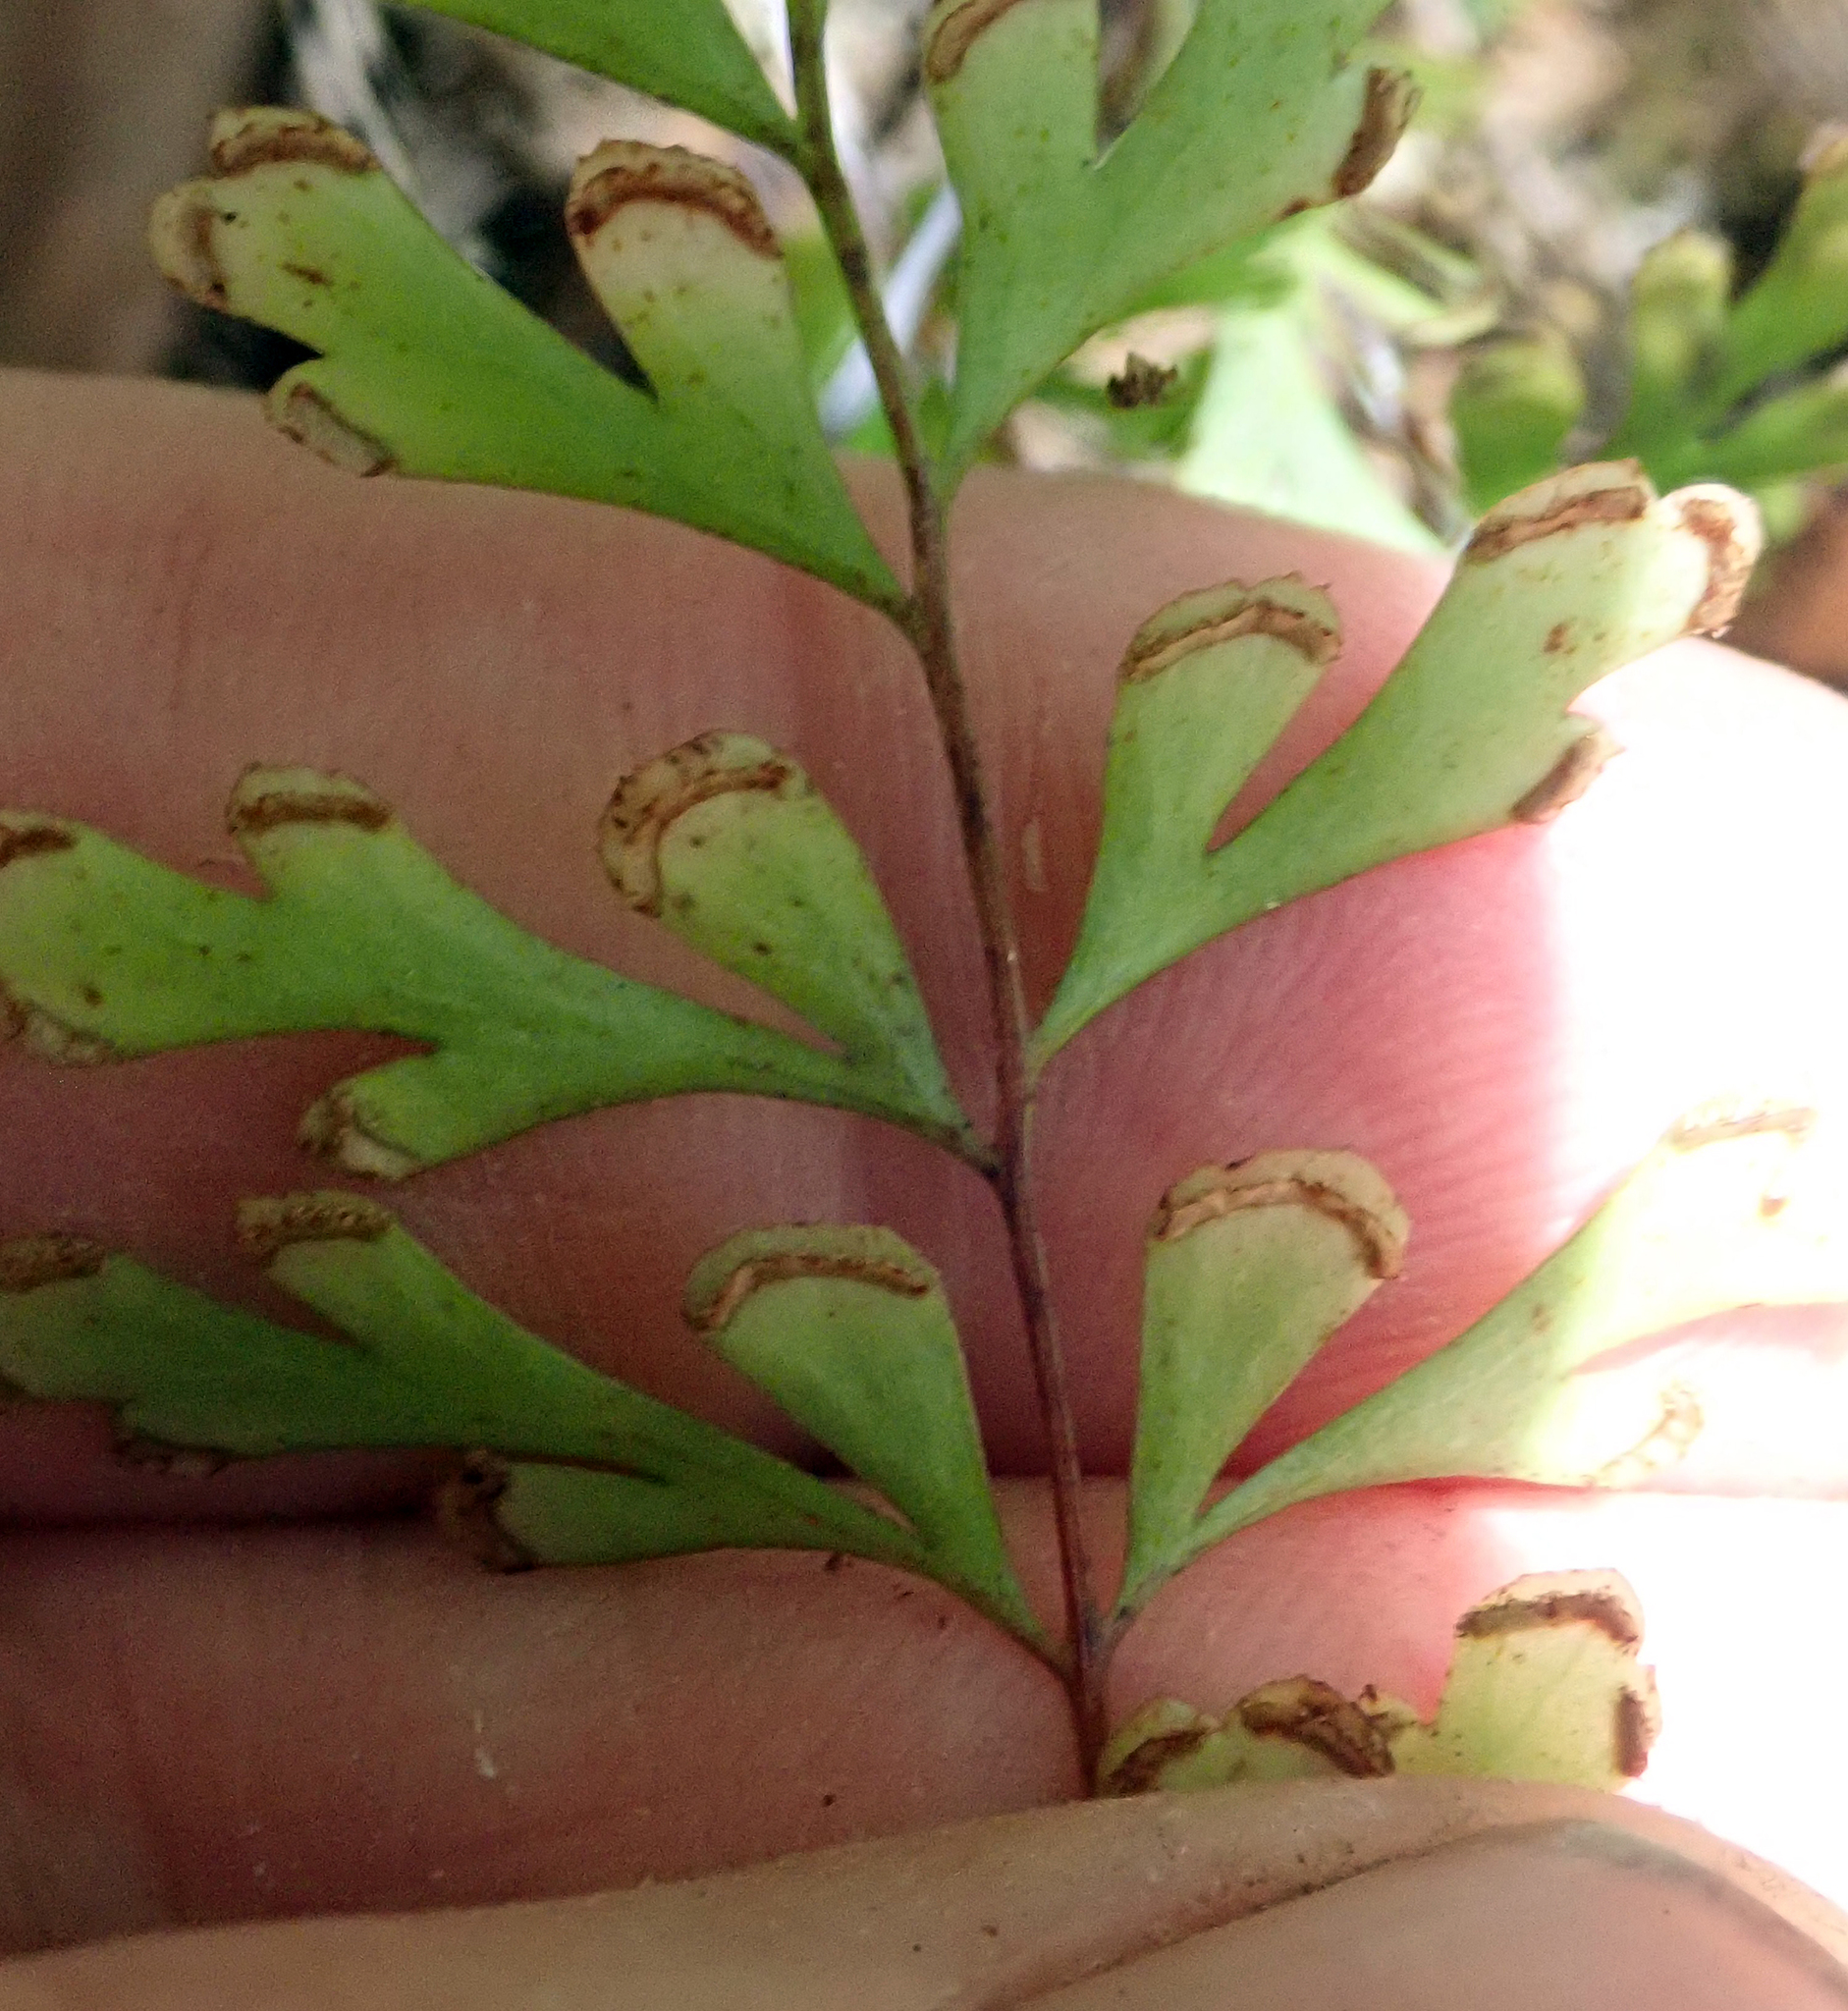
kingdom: Plantae
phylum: Tracheophyta
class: Polypodiopsida
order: Polypodiales
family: Lindsaeaceae
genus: Lindsaea
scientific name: Lindsaea trichomanoides
